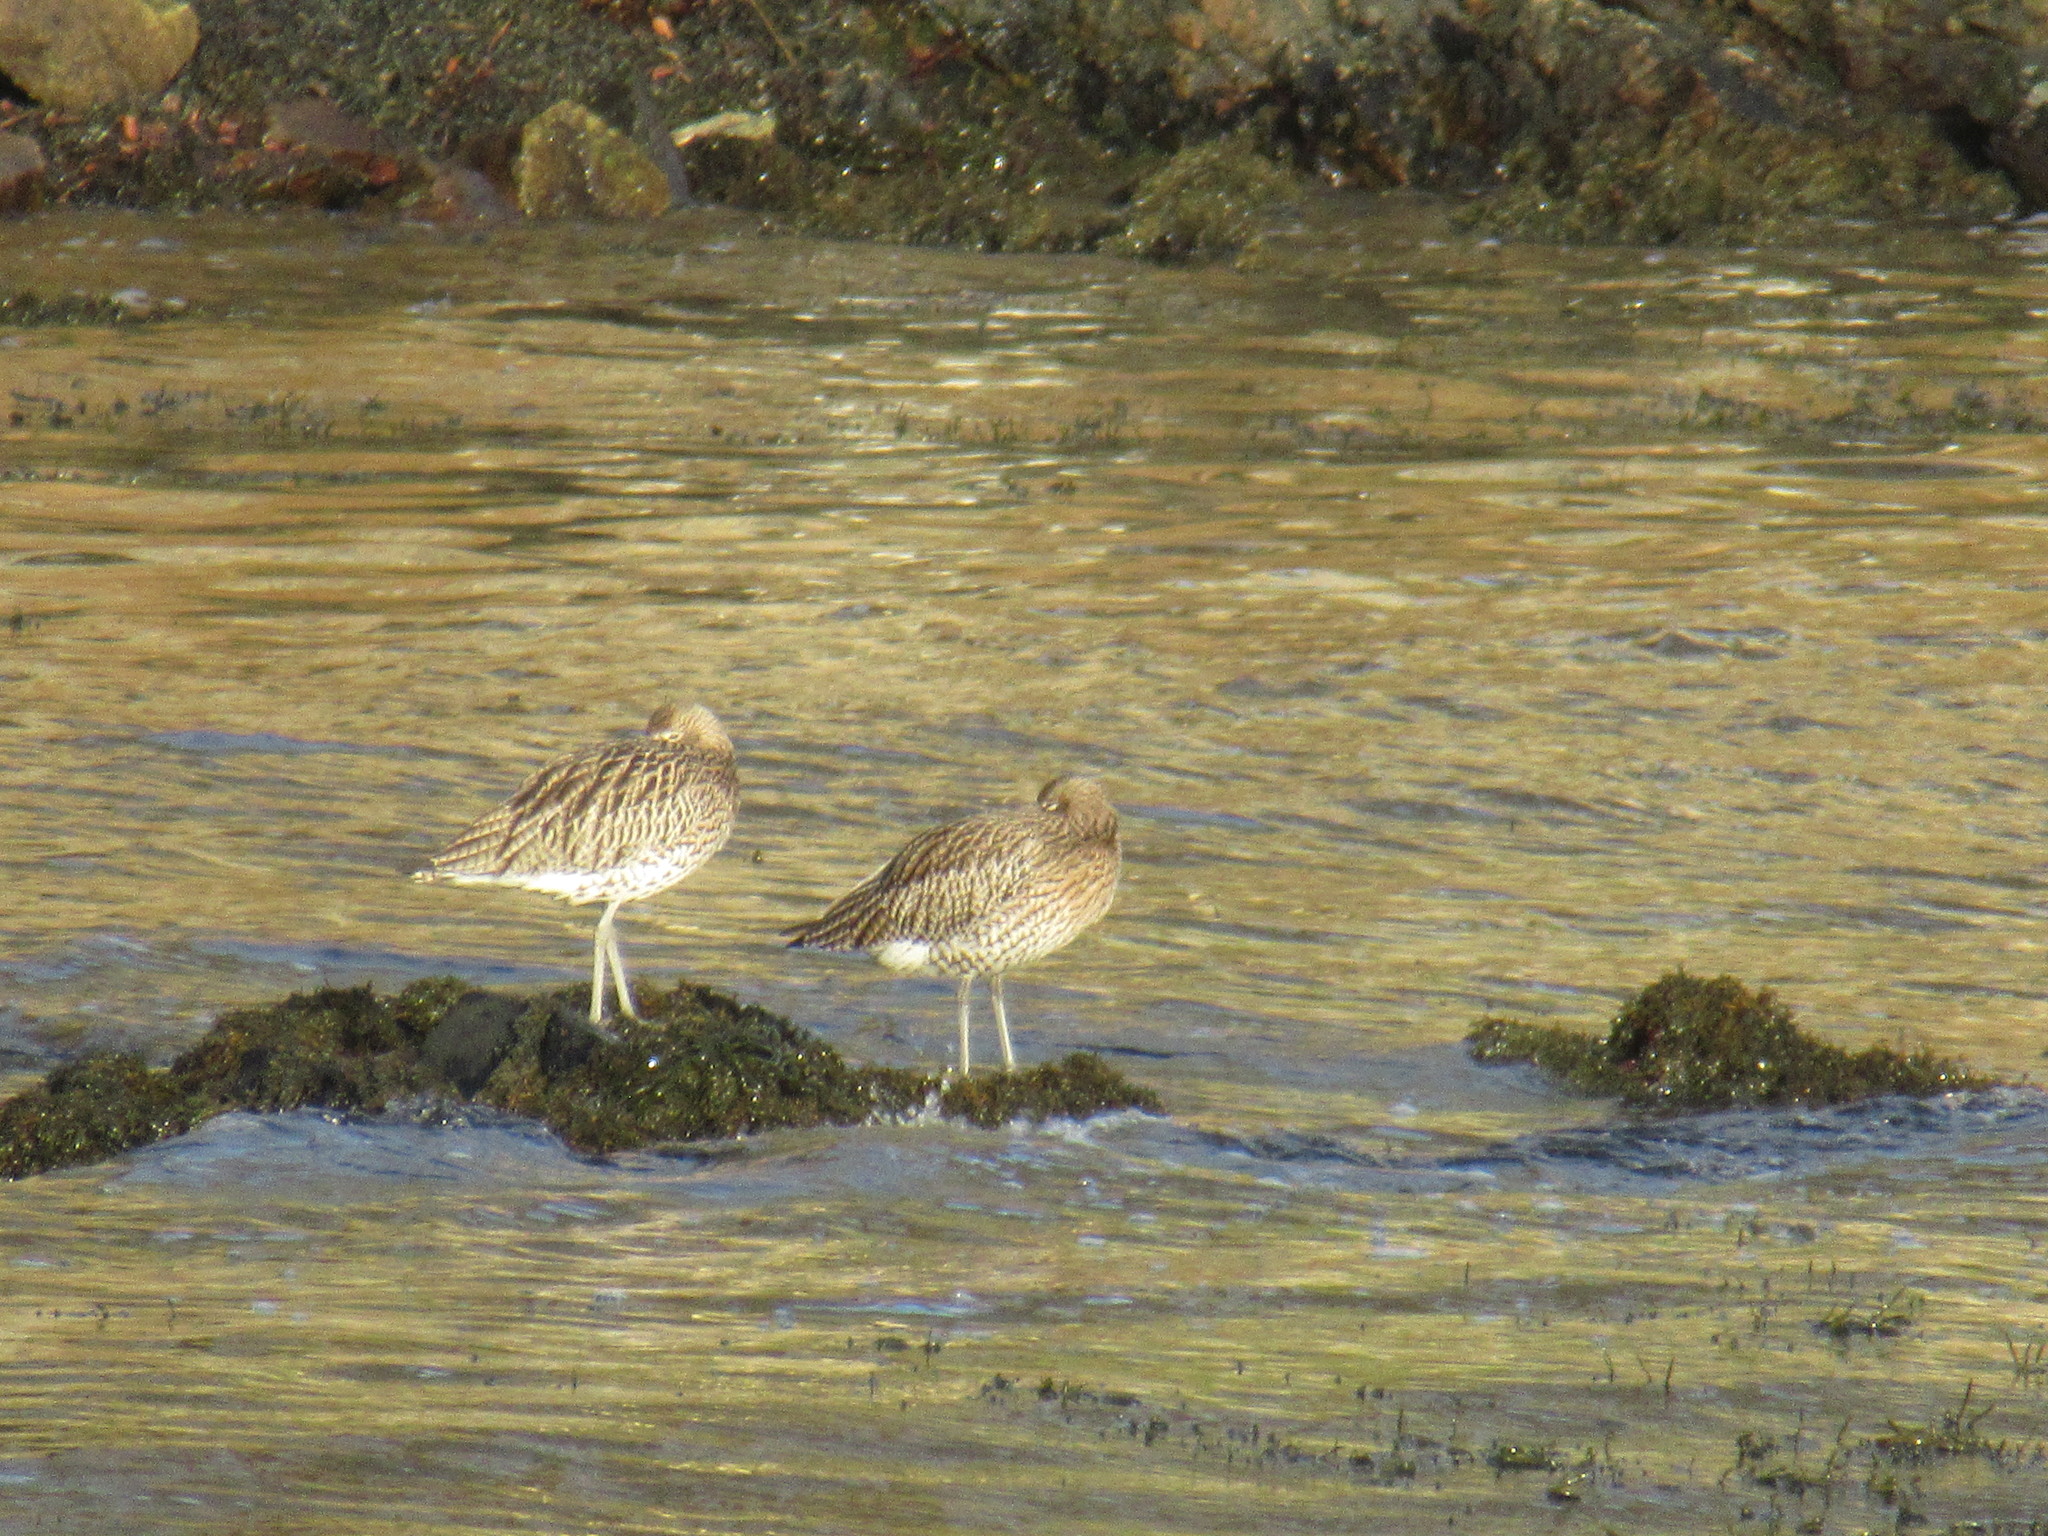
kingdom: Animalia
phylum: Chordata
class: Aves
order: Charadriiformes
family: Scolopacidae
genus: Numenius
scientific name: Numenius arquata
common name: Eurasian curlew
